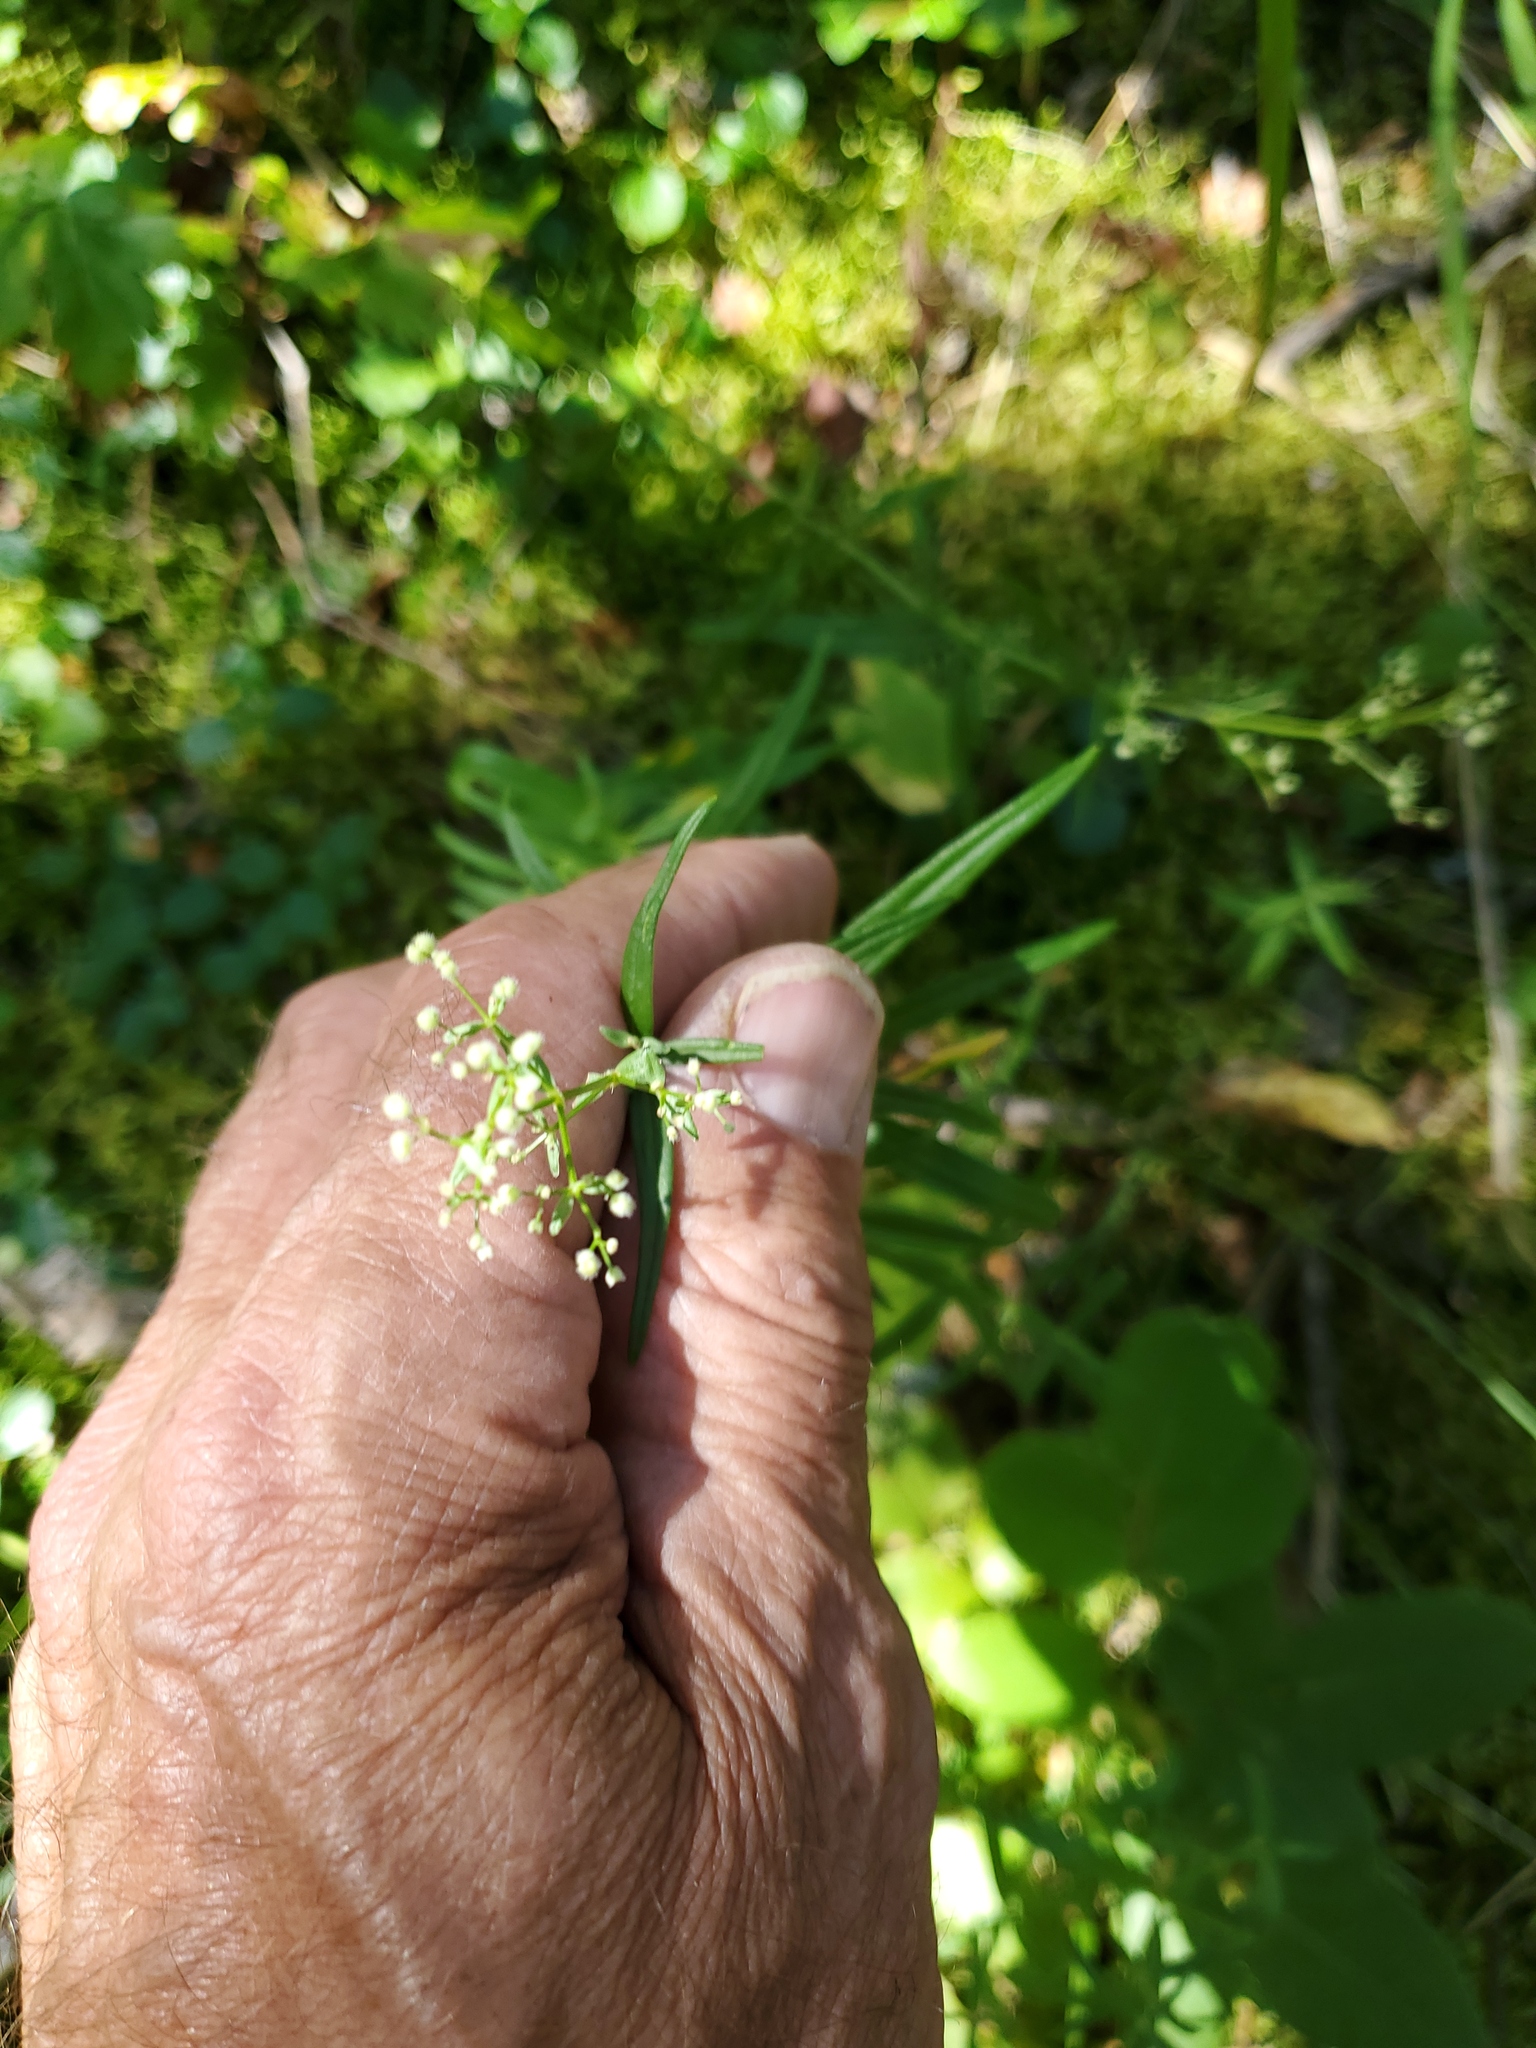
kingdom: Plantae
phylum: Tracheophyta
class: Magnoliopsida
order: Gentianales
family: Rubiaceae
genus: Galium
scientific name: Galium boreale
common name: Northern bedstraw
